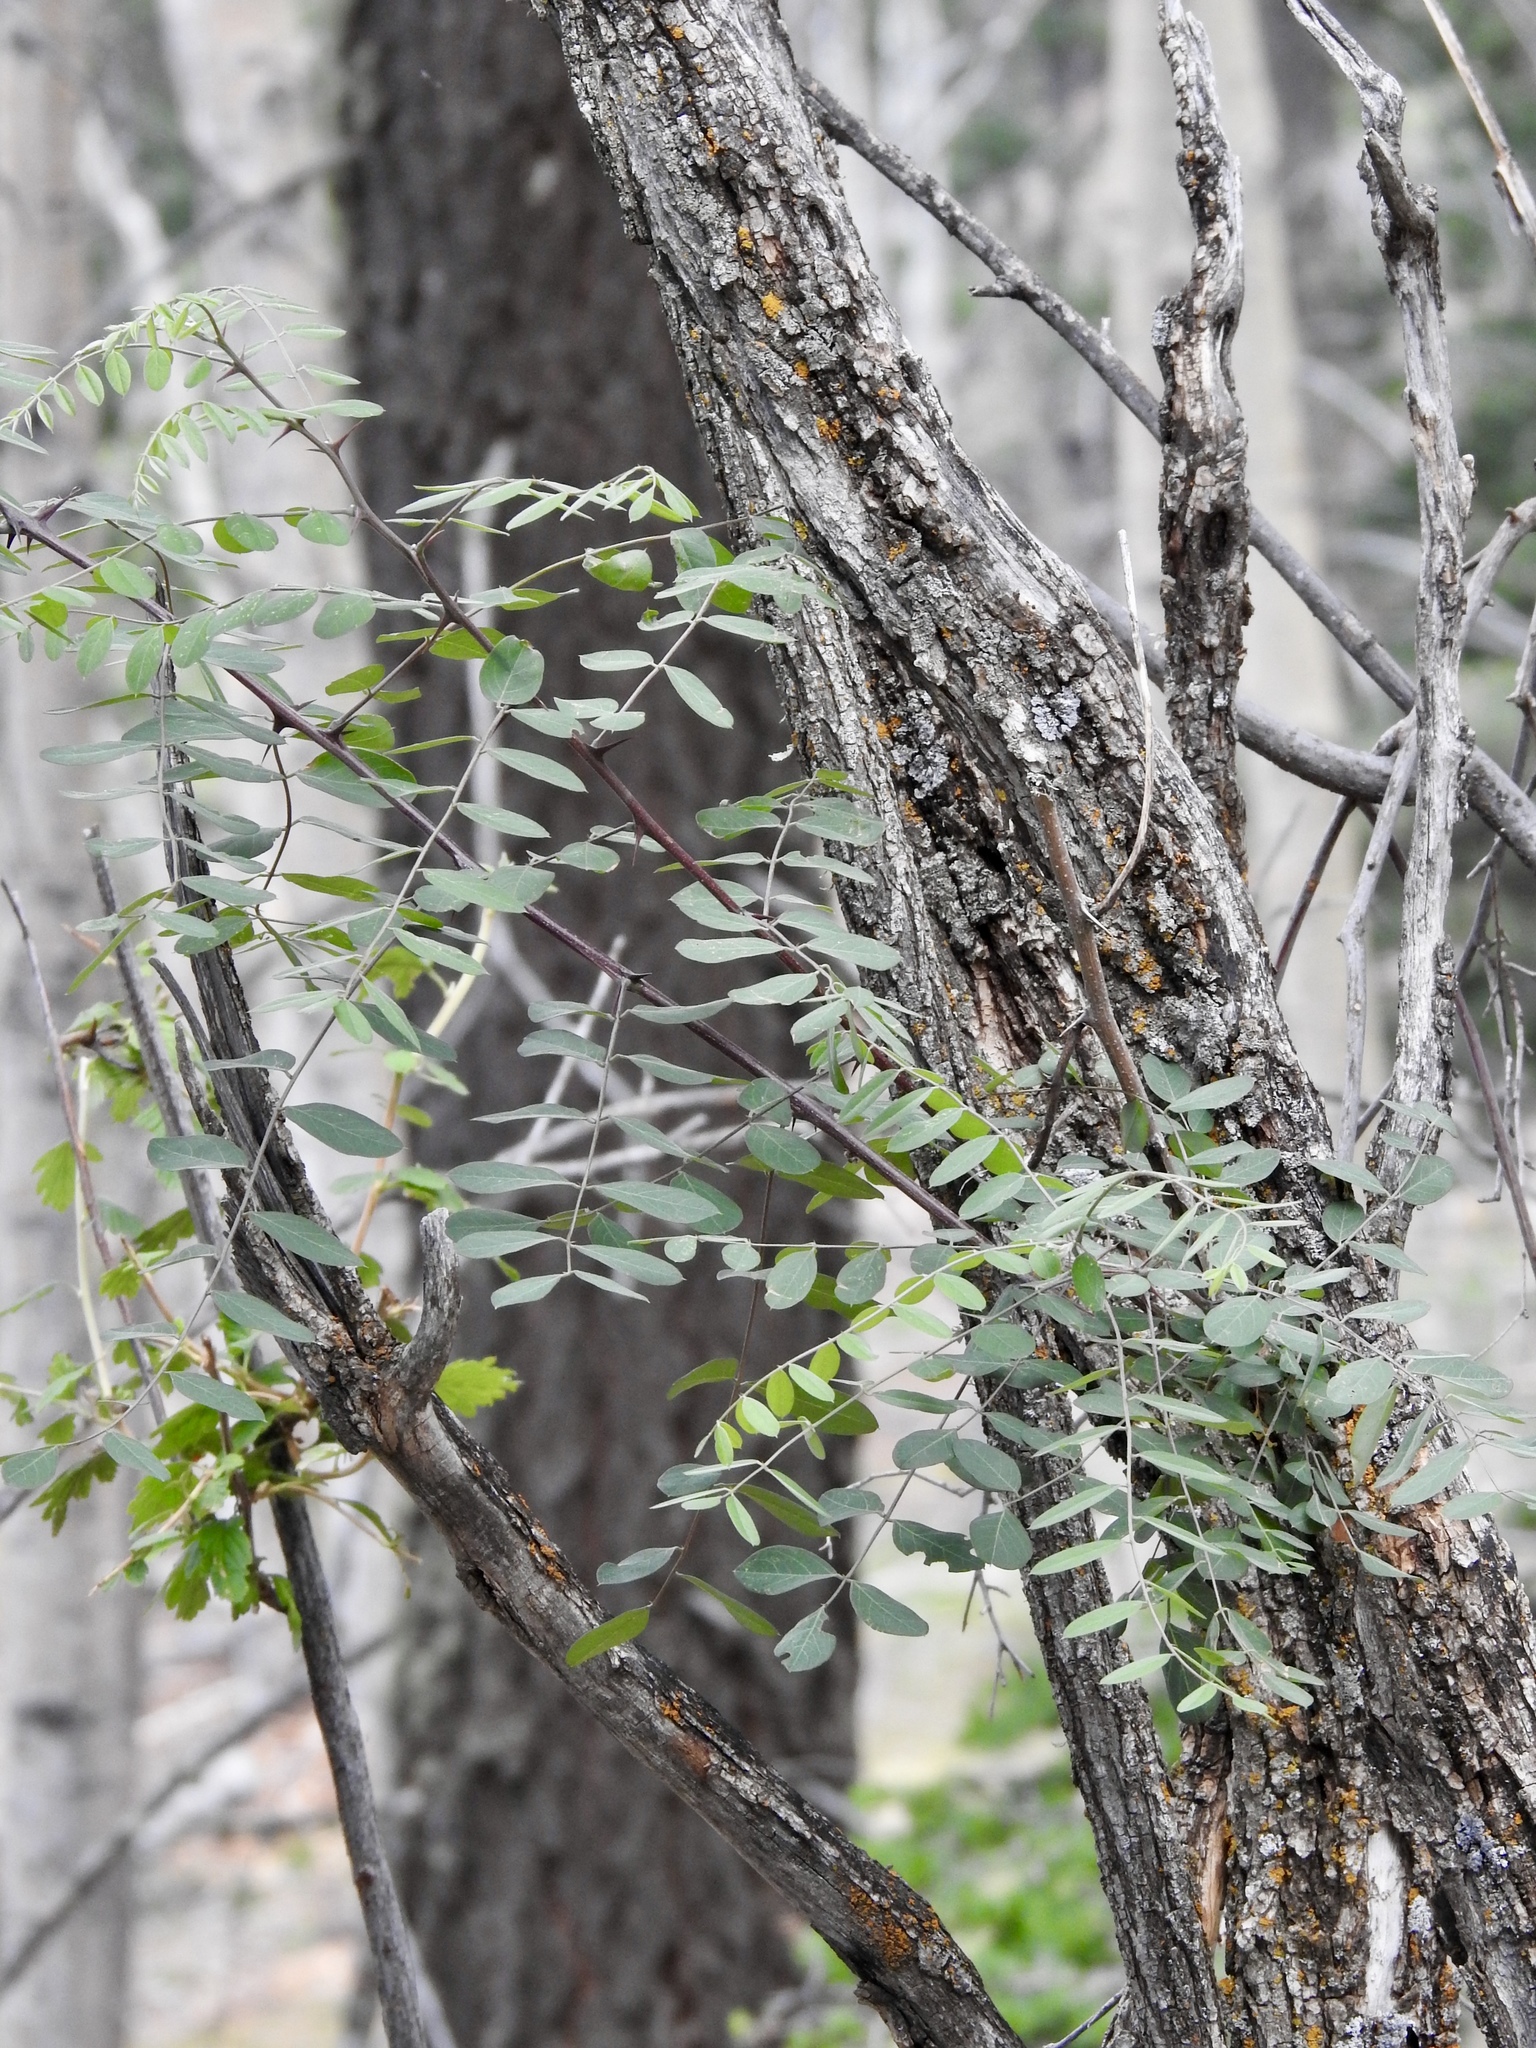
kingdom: Plantae
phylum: Tracheophyta
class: Magnoliopsida
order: Fabales
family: Fabaceae
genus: Robinia
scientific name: Robinia neomexicana
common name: New mexico locust
